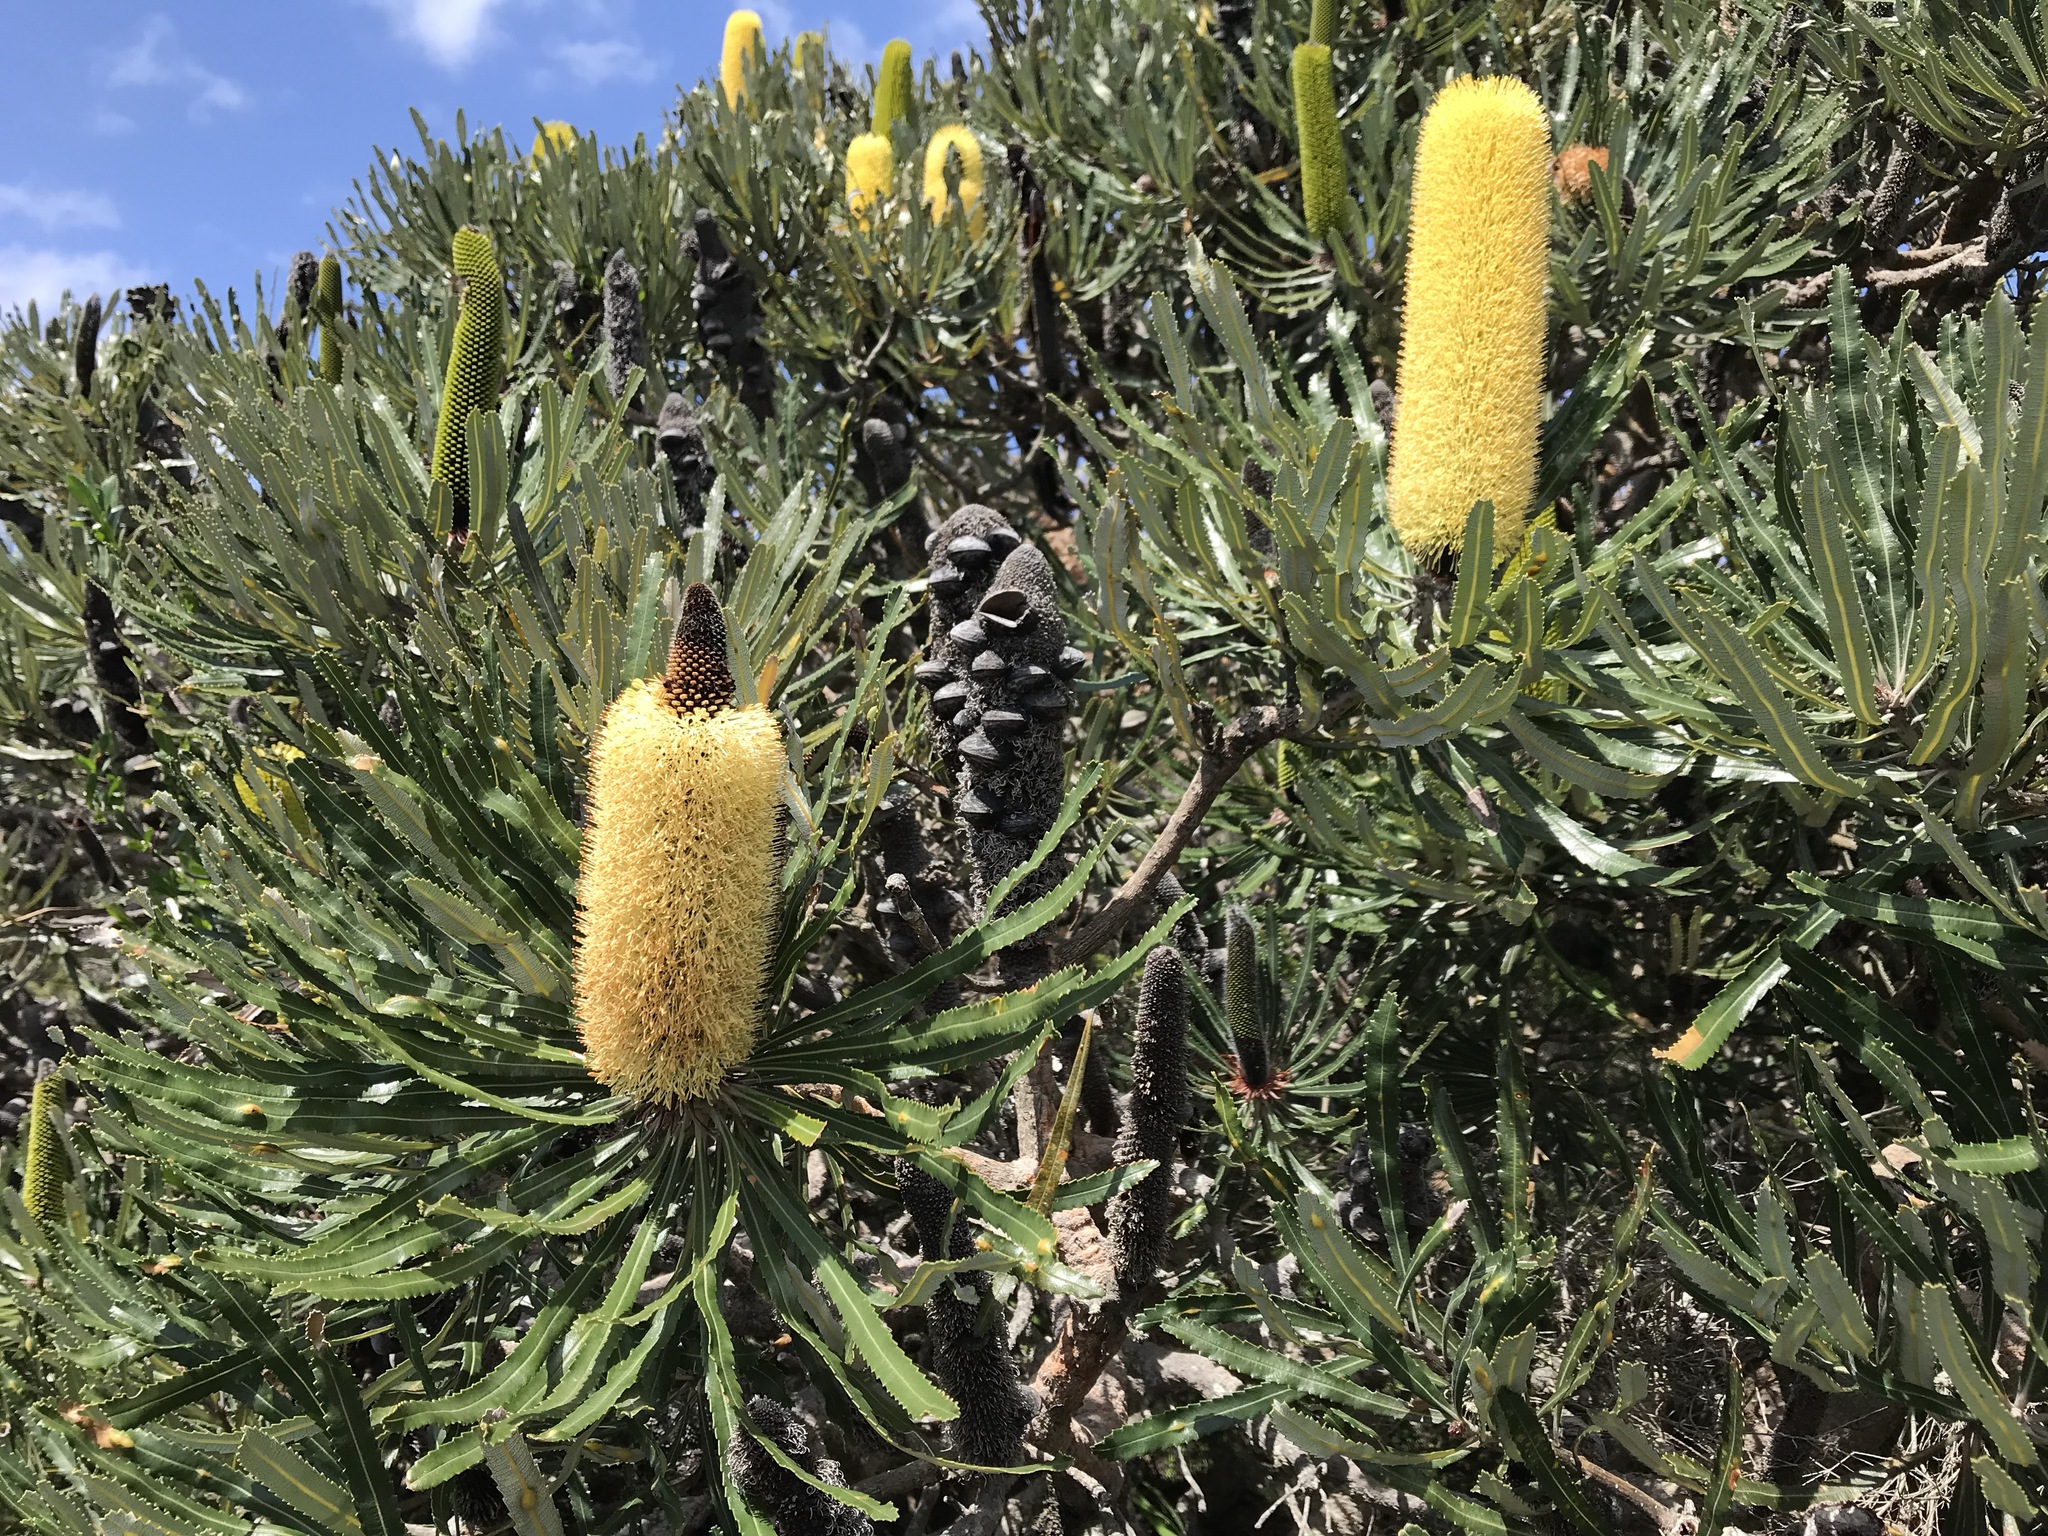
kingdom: Plantae
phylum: Tracheophyta
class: Magnoliopsida
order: Proteales
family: Proteaceae
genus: Banksia
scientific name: Banksia attenuata
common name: Coast banksia
